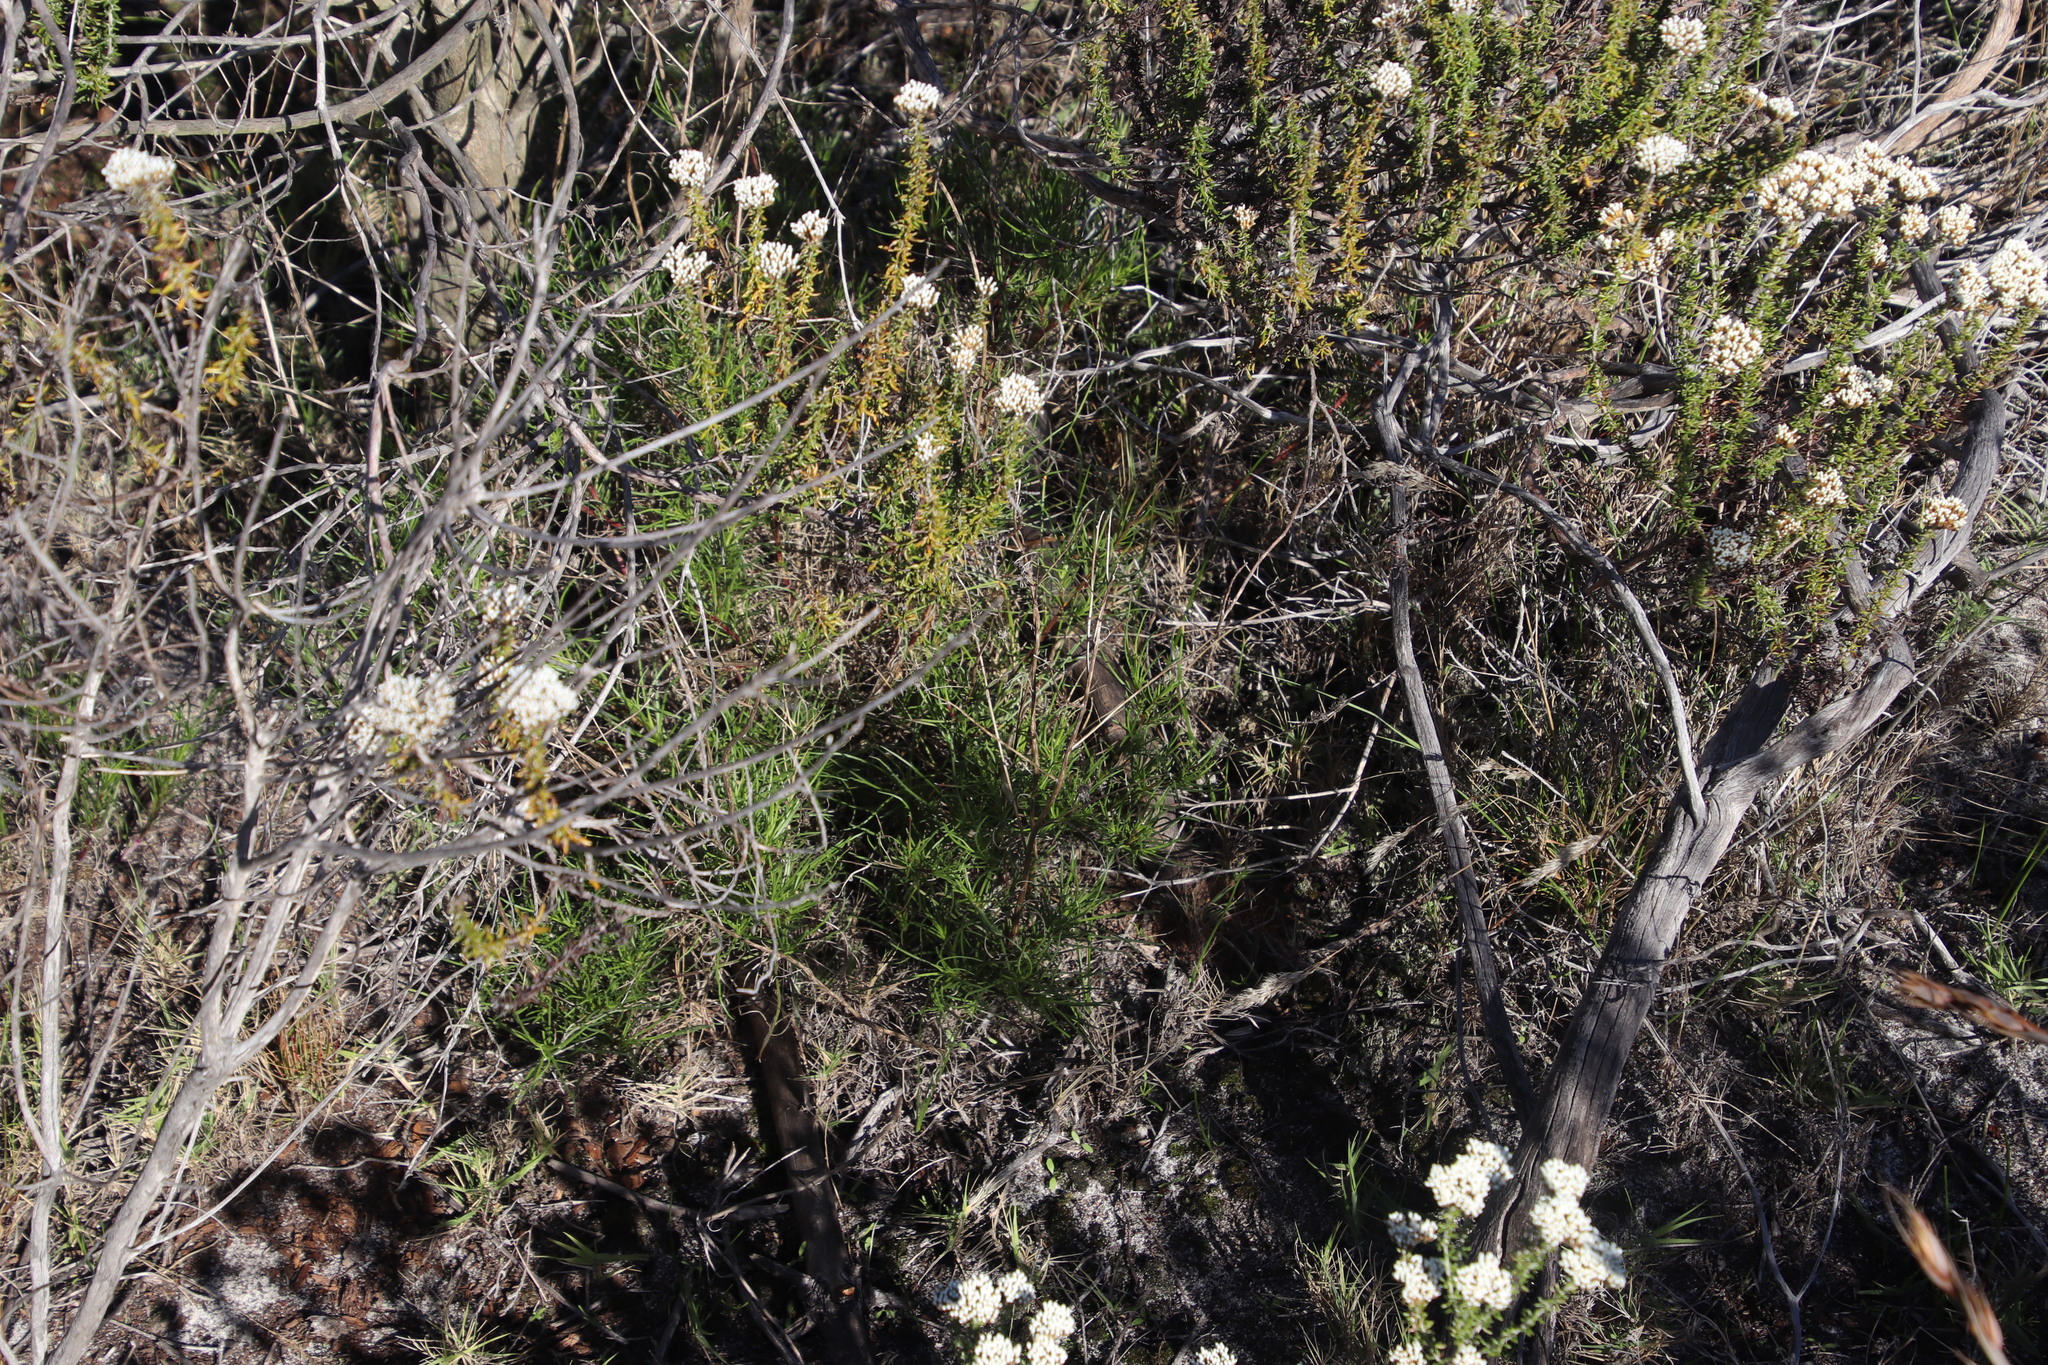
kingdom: Plantae
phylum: Tracheophyta
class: Magnoliopsida
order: Asterales
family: Asteraceae
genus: Senecio
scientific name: Senecio burchellii
